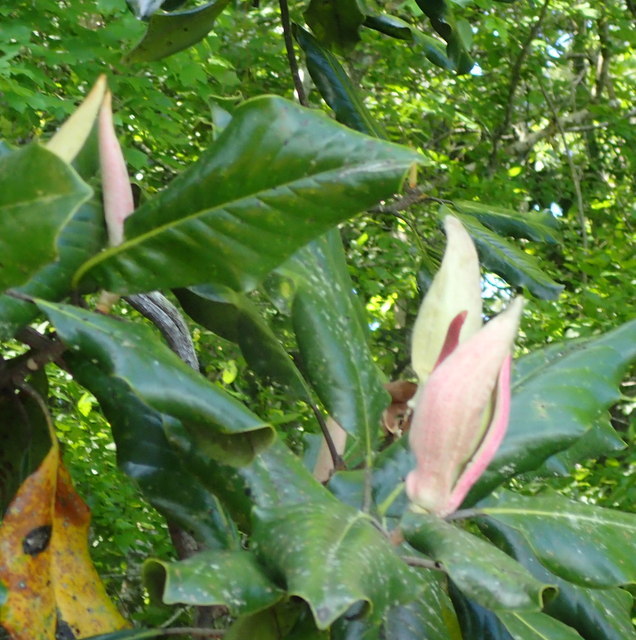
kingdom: Plantae
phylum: Tracheophyta
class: Magnoliopsida
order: Magnoliales
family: Magnoliaceae
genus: Magnolia
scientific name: Magnolia grandiflora
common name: Southern magnolia
